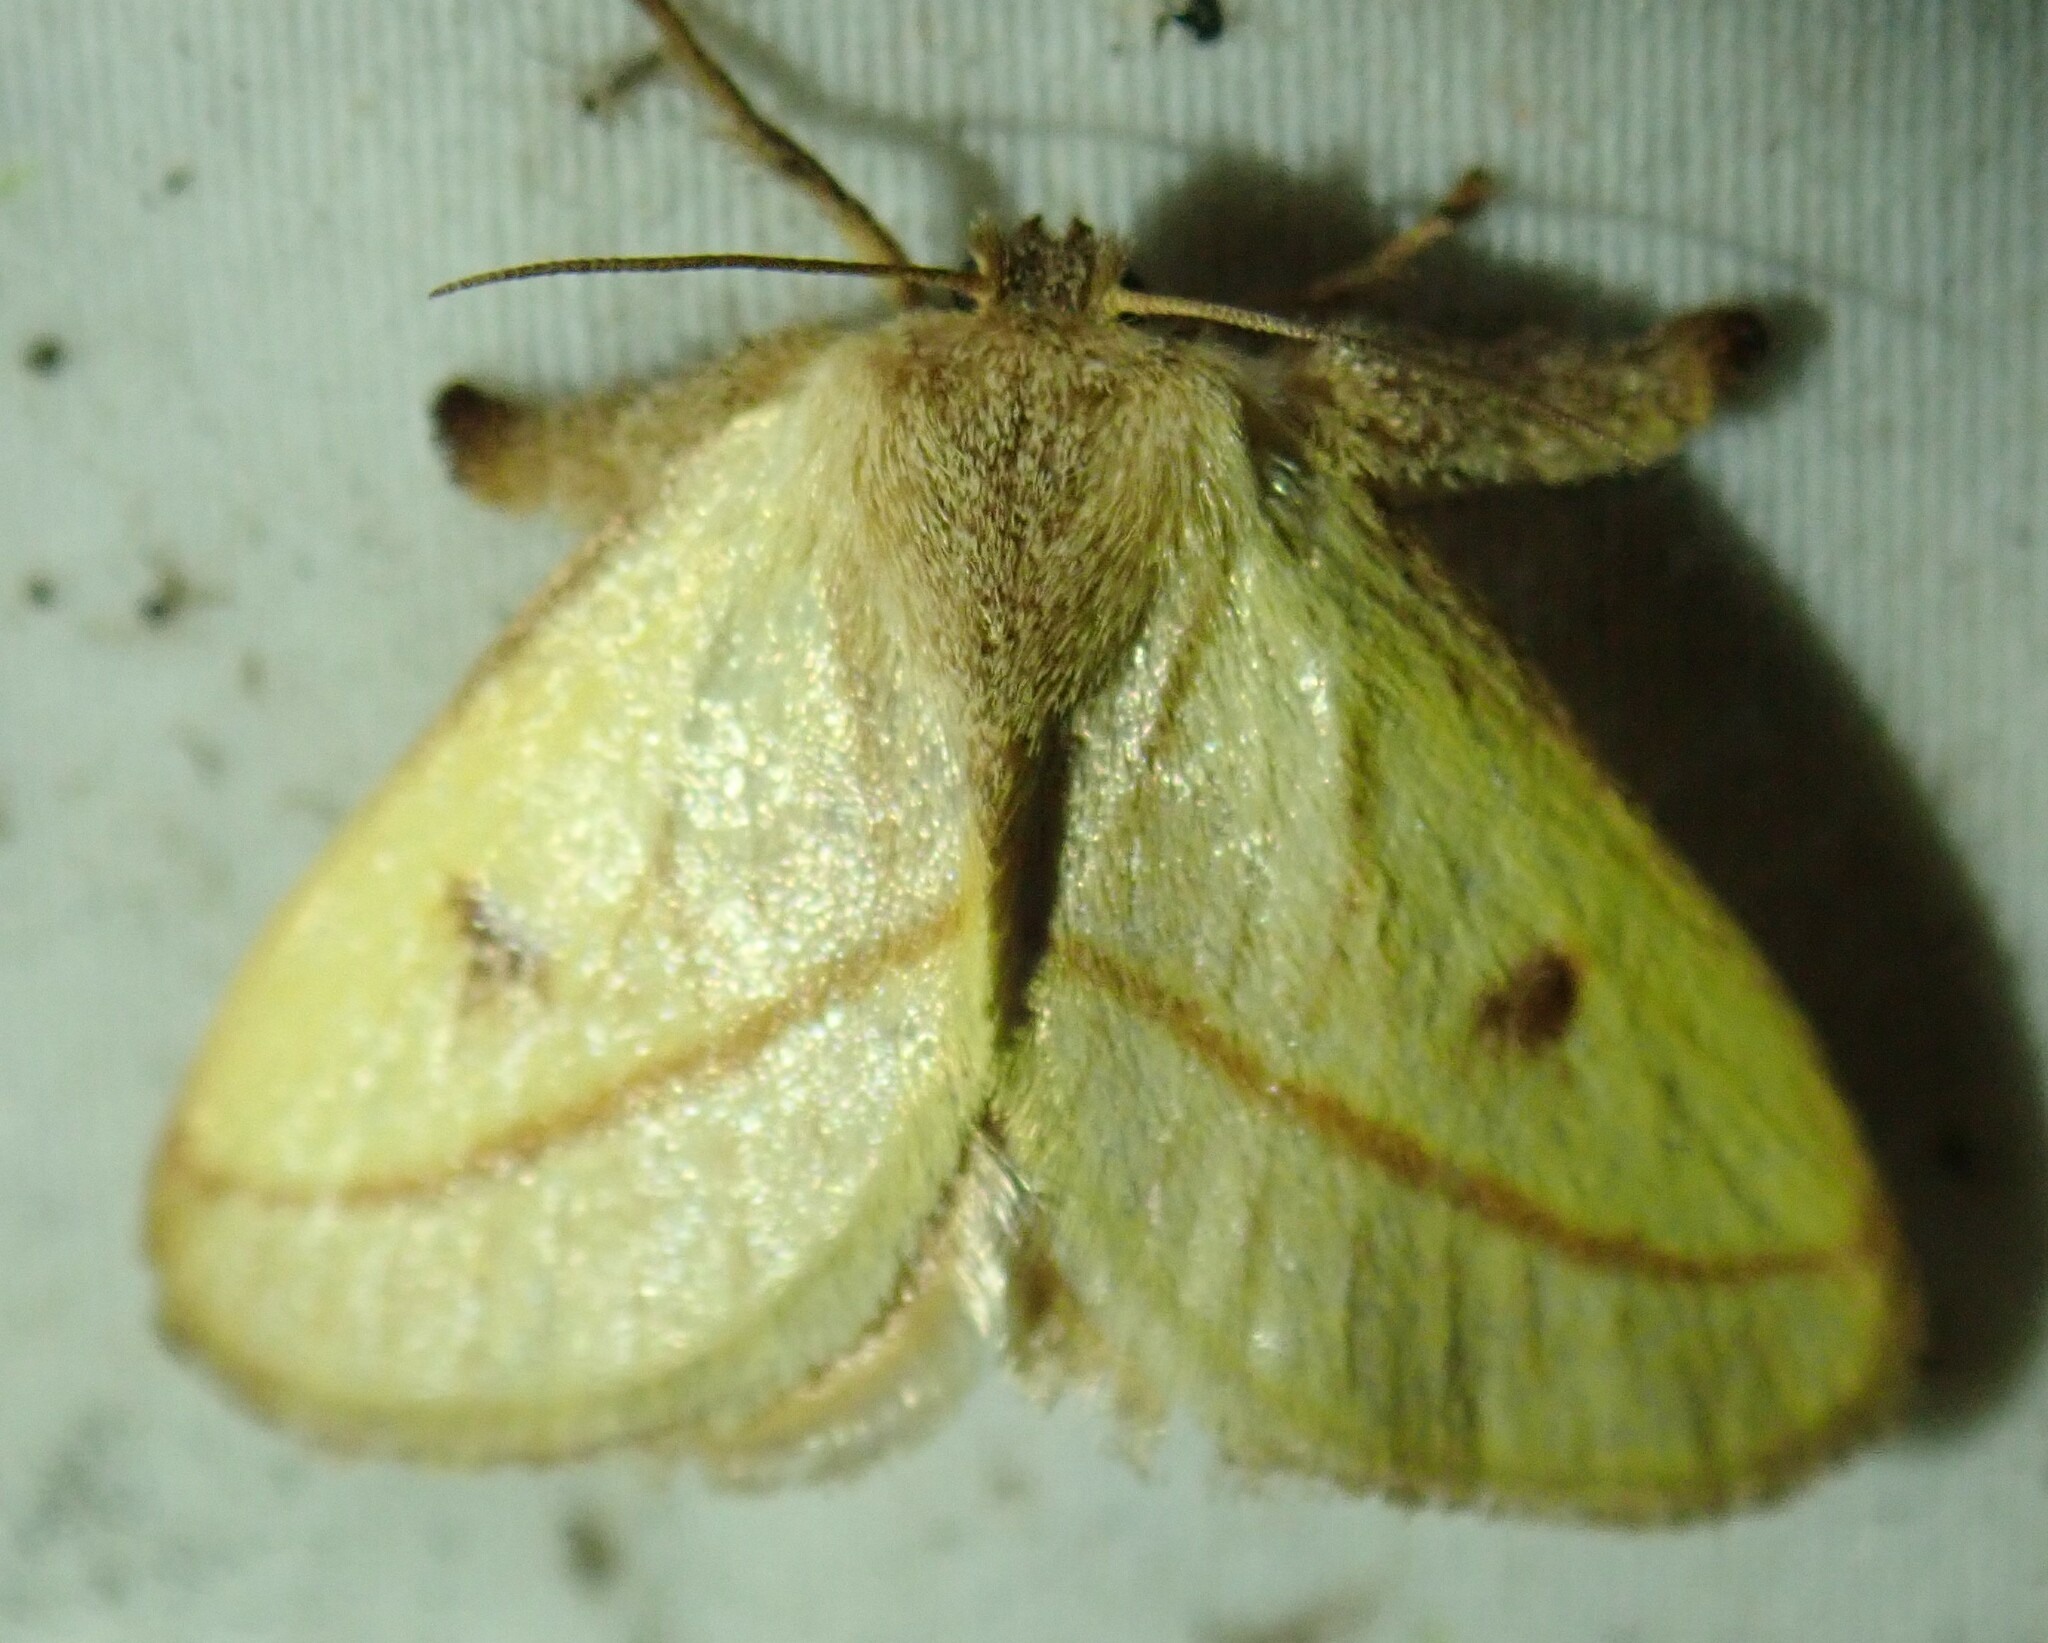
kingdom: Animalia
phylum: Arthropoda
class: Insecta
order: Lepidoptera
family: Limacodidae
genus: Euclea
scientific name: Euclea aethes
